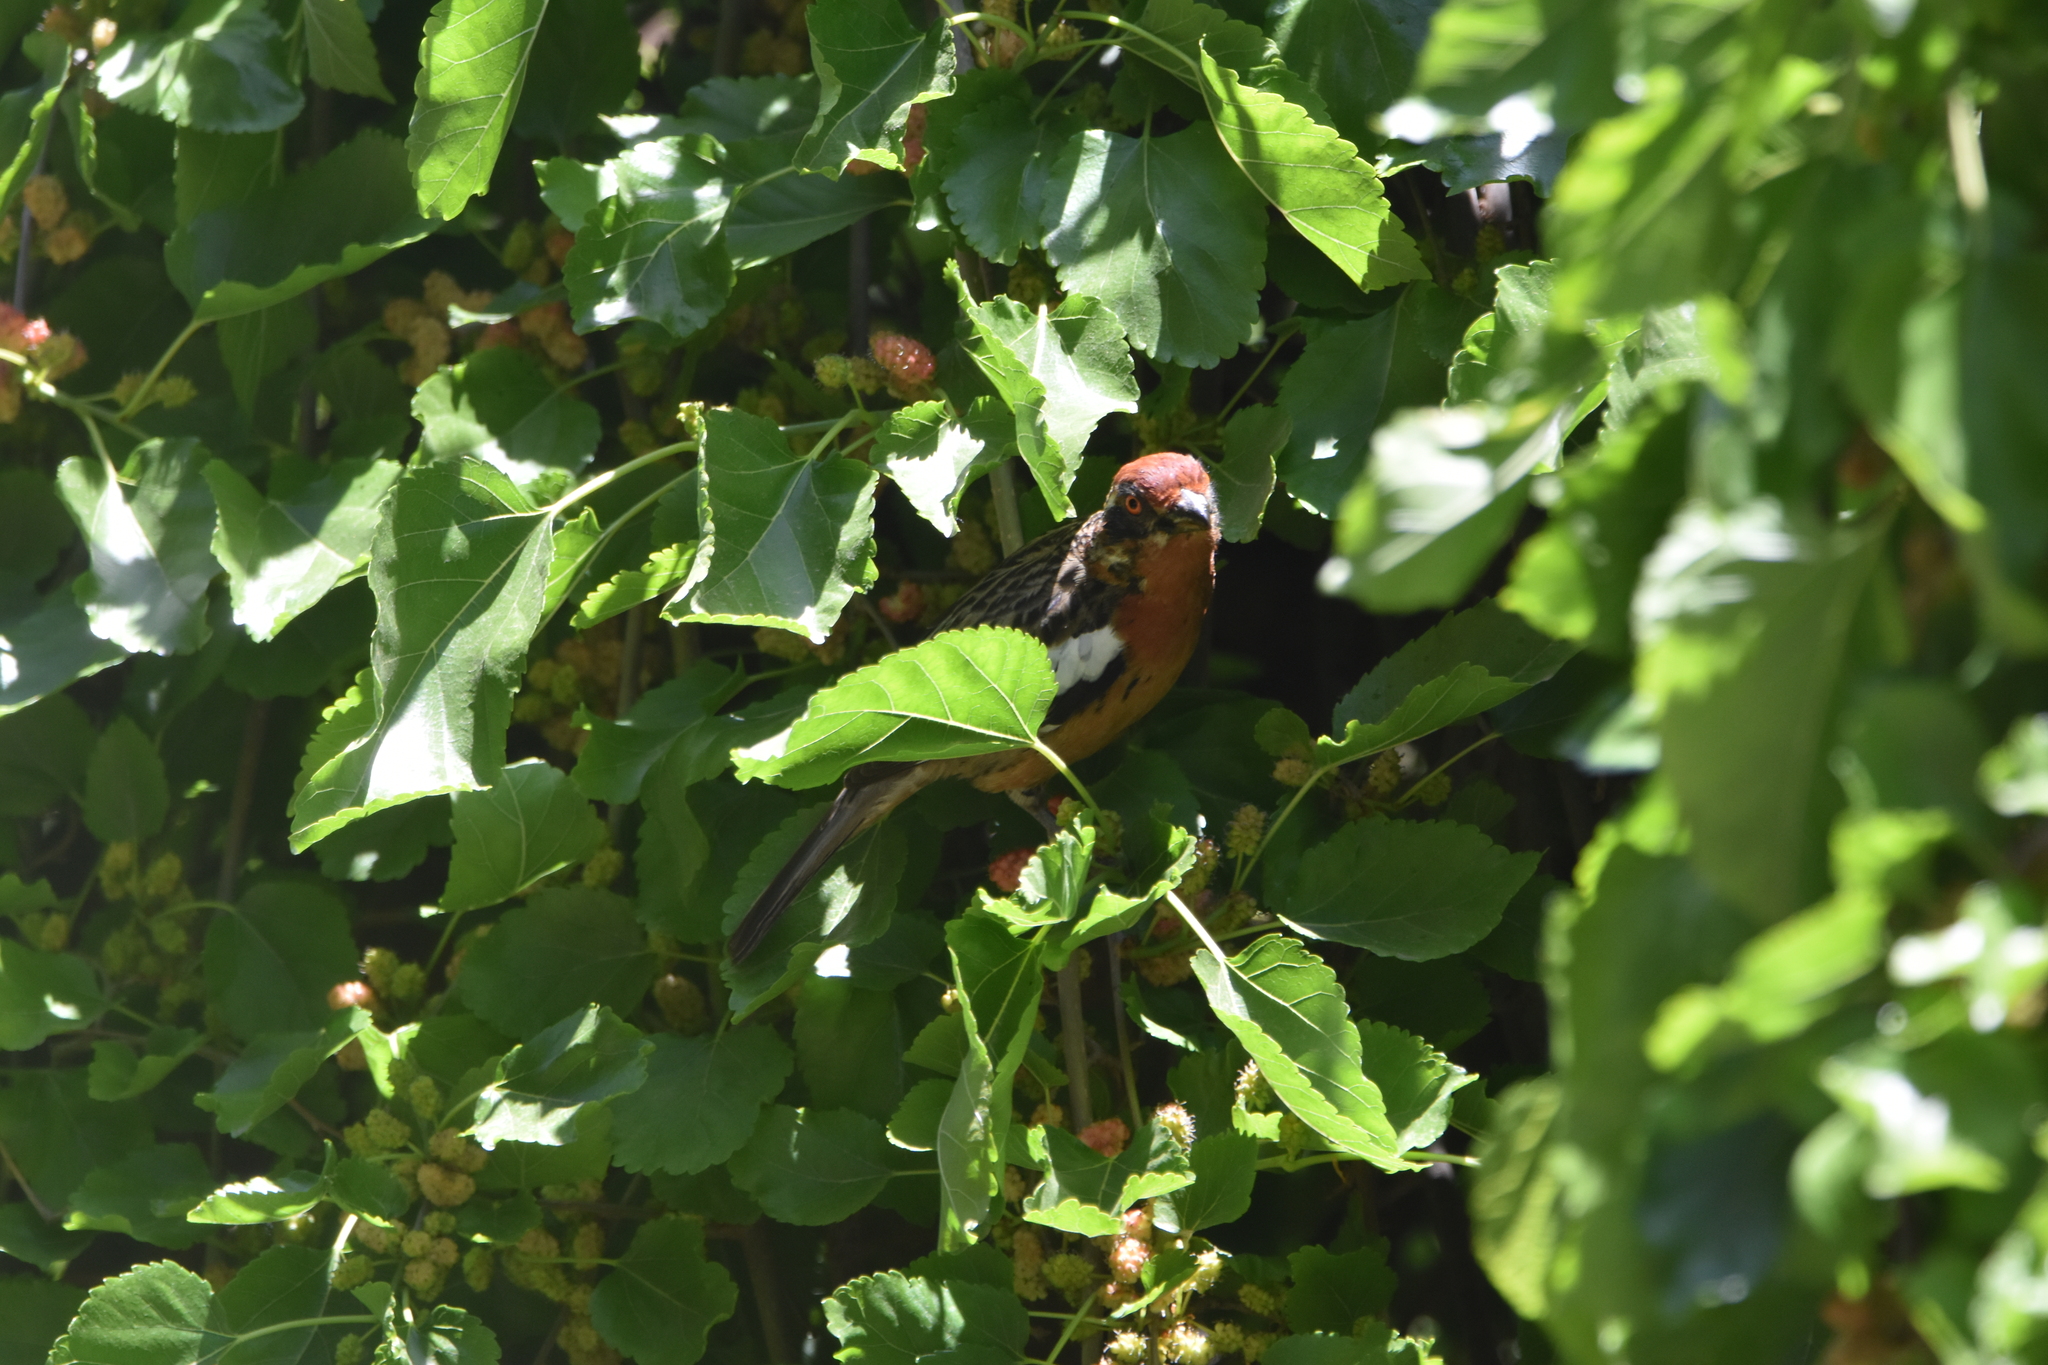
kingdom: Animalia
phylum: Chordata
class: Aves
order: Passeriformes
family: Cotingidae
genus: Phytotoma
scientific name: Phytotoma rara
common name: Rufous-tailed plantcutter
